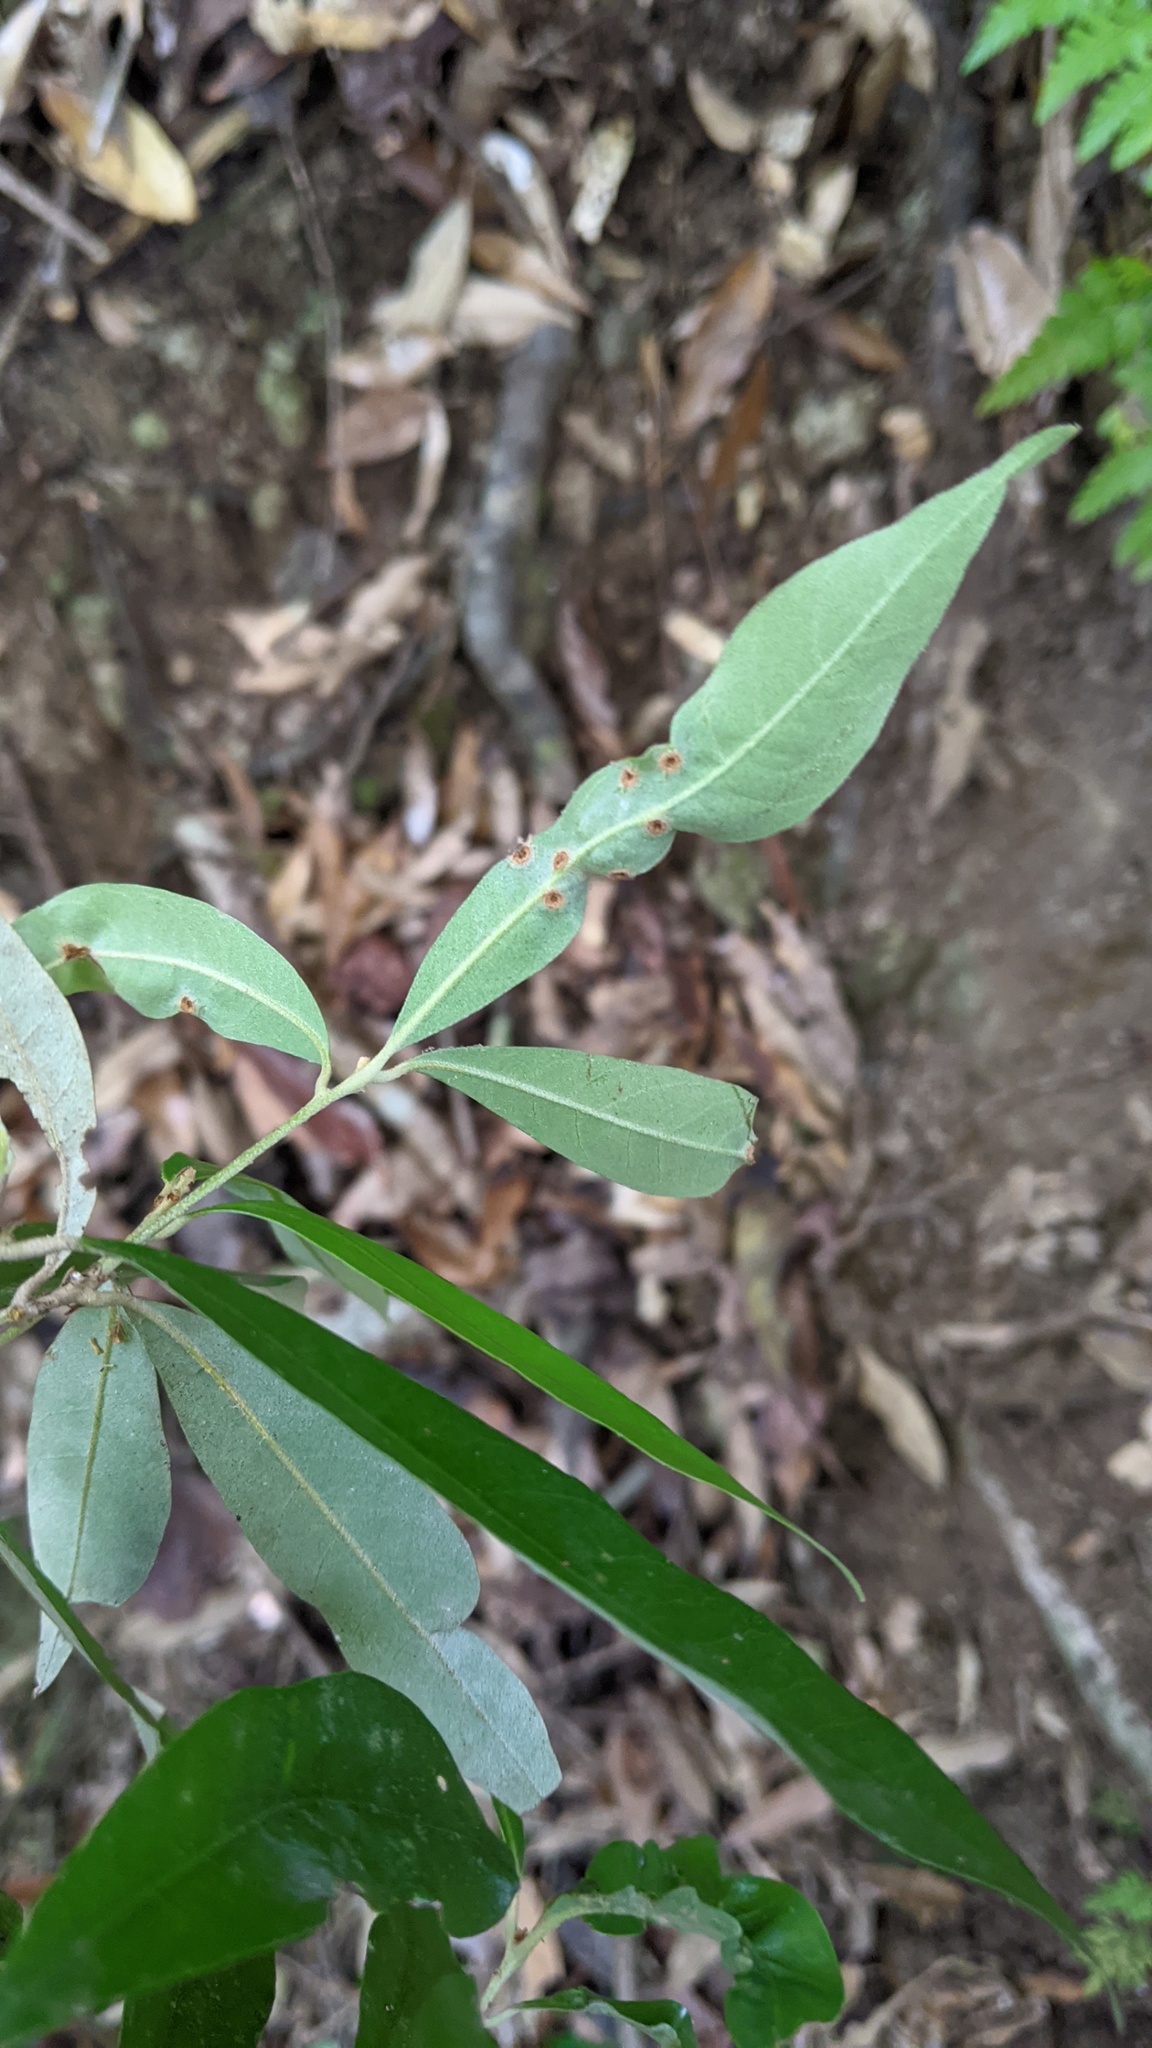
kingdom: Plantae
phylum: Tracheophyta
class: Magnoliopsida
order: Fagales
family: Fagaceae
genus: Quercus
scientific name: Quercus hypophaea
